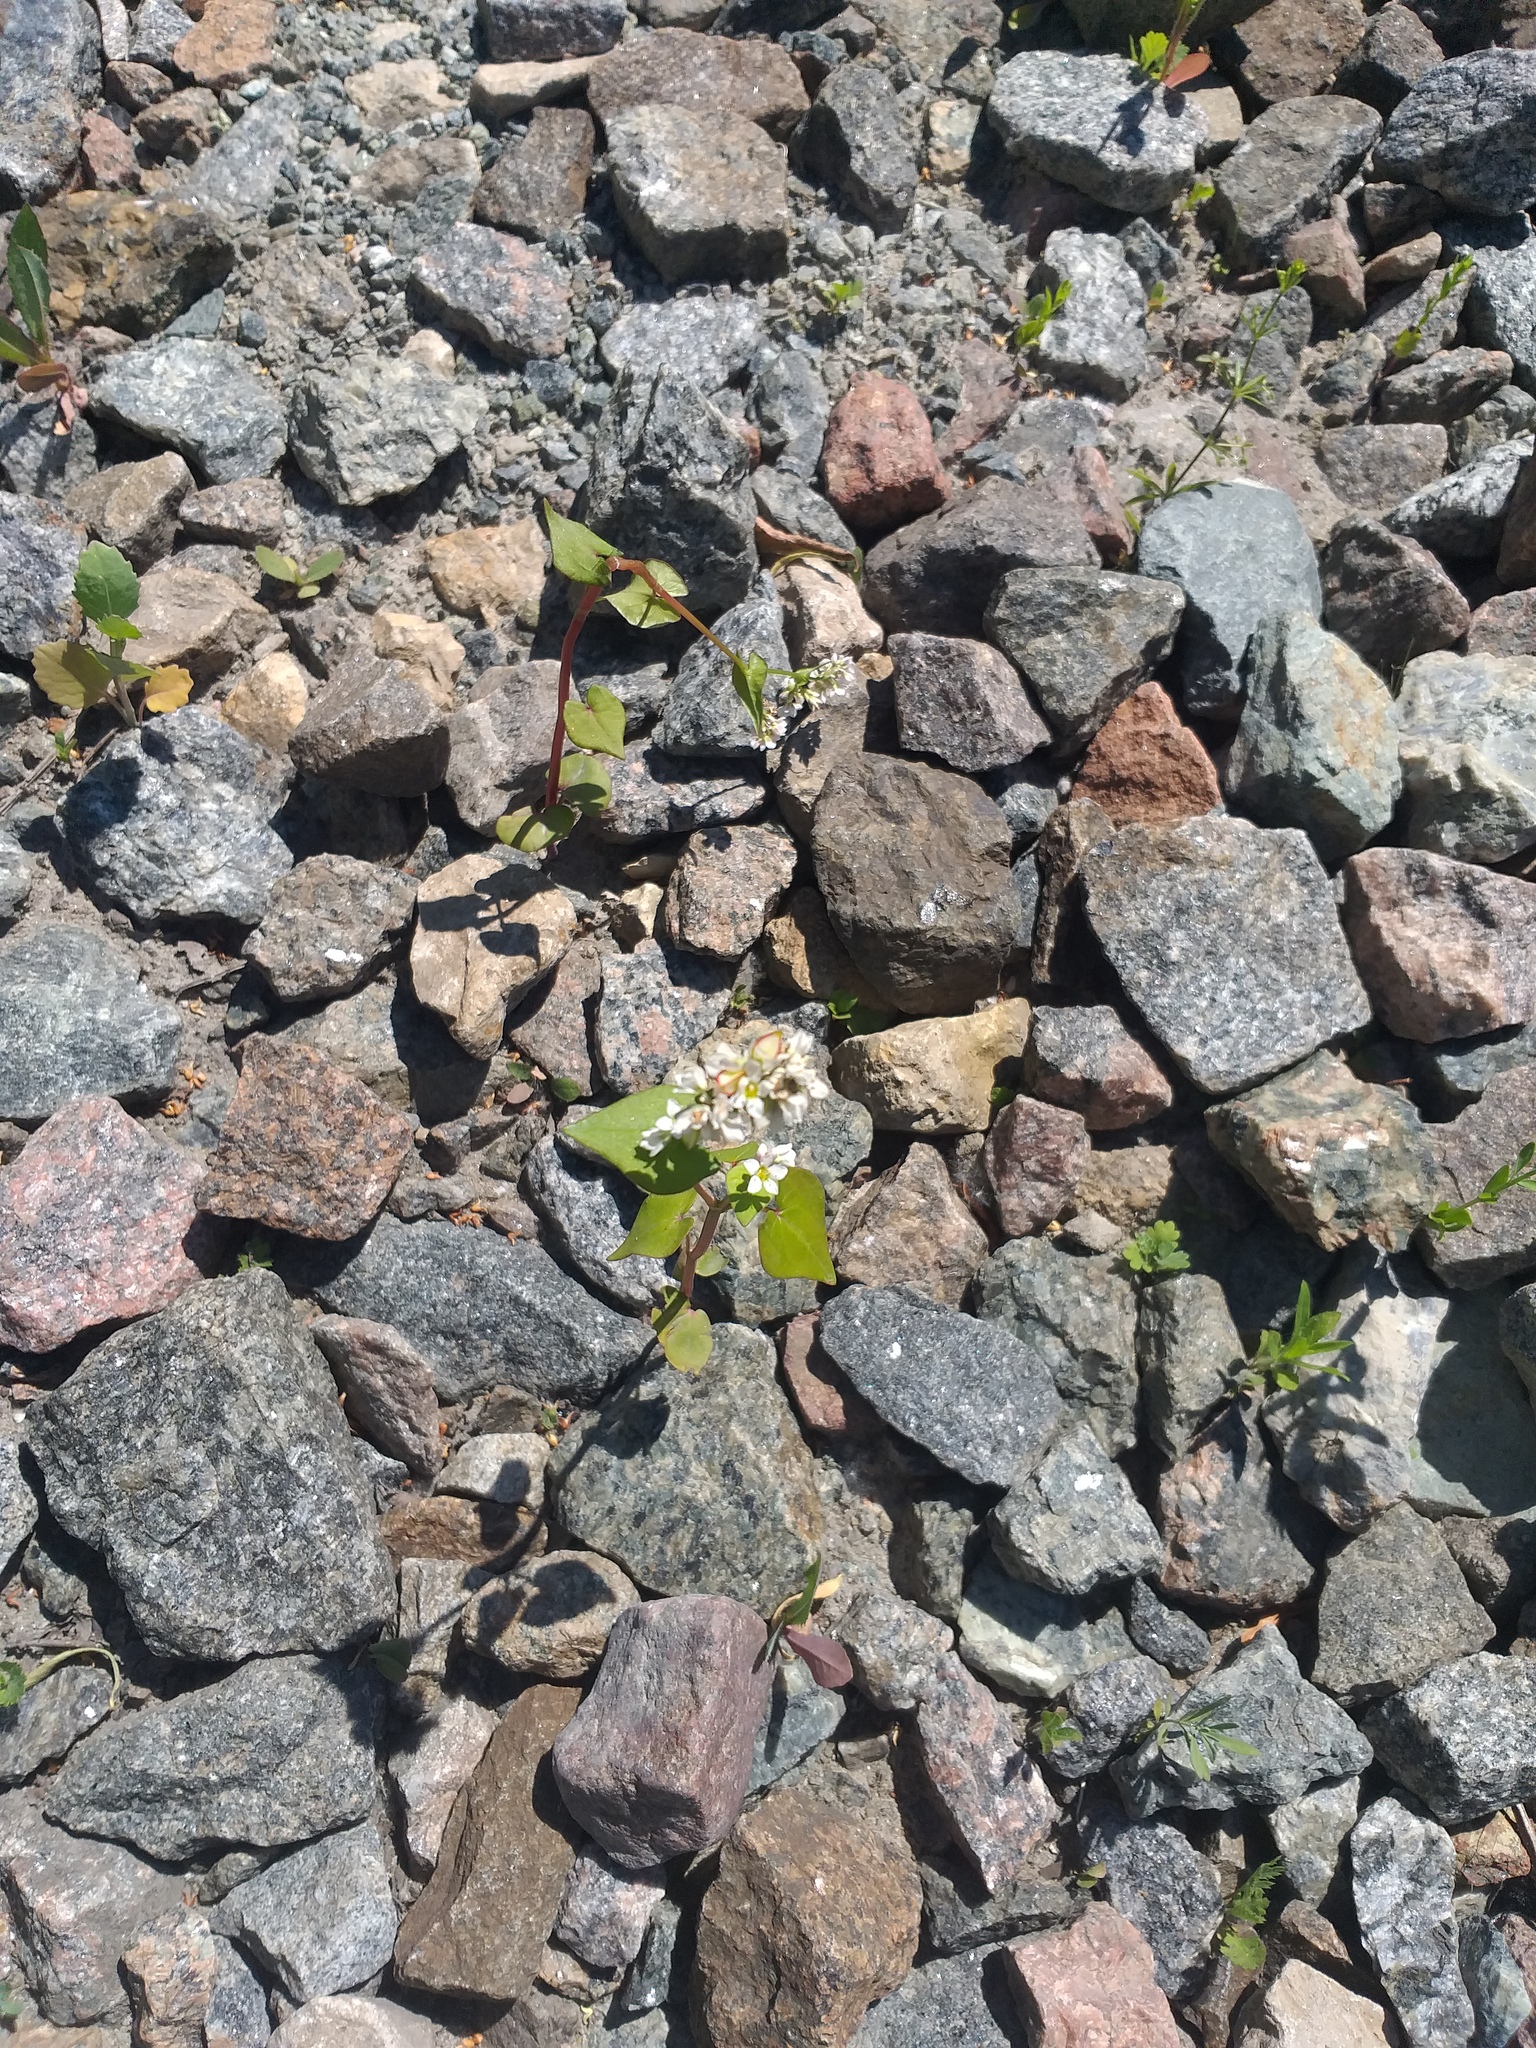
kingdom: Plantae
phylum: Tracheophyta
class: Magnoliopsida
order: Caryophyllales
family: Polygonaceae
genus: Fagopyrum
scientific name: Fagopyrum esculentum
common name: Buckwheat
